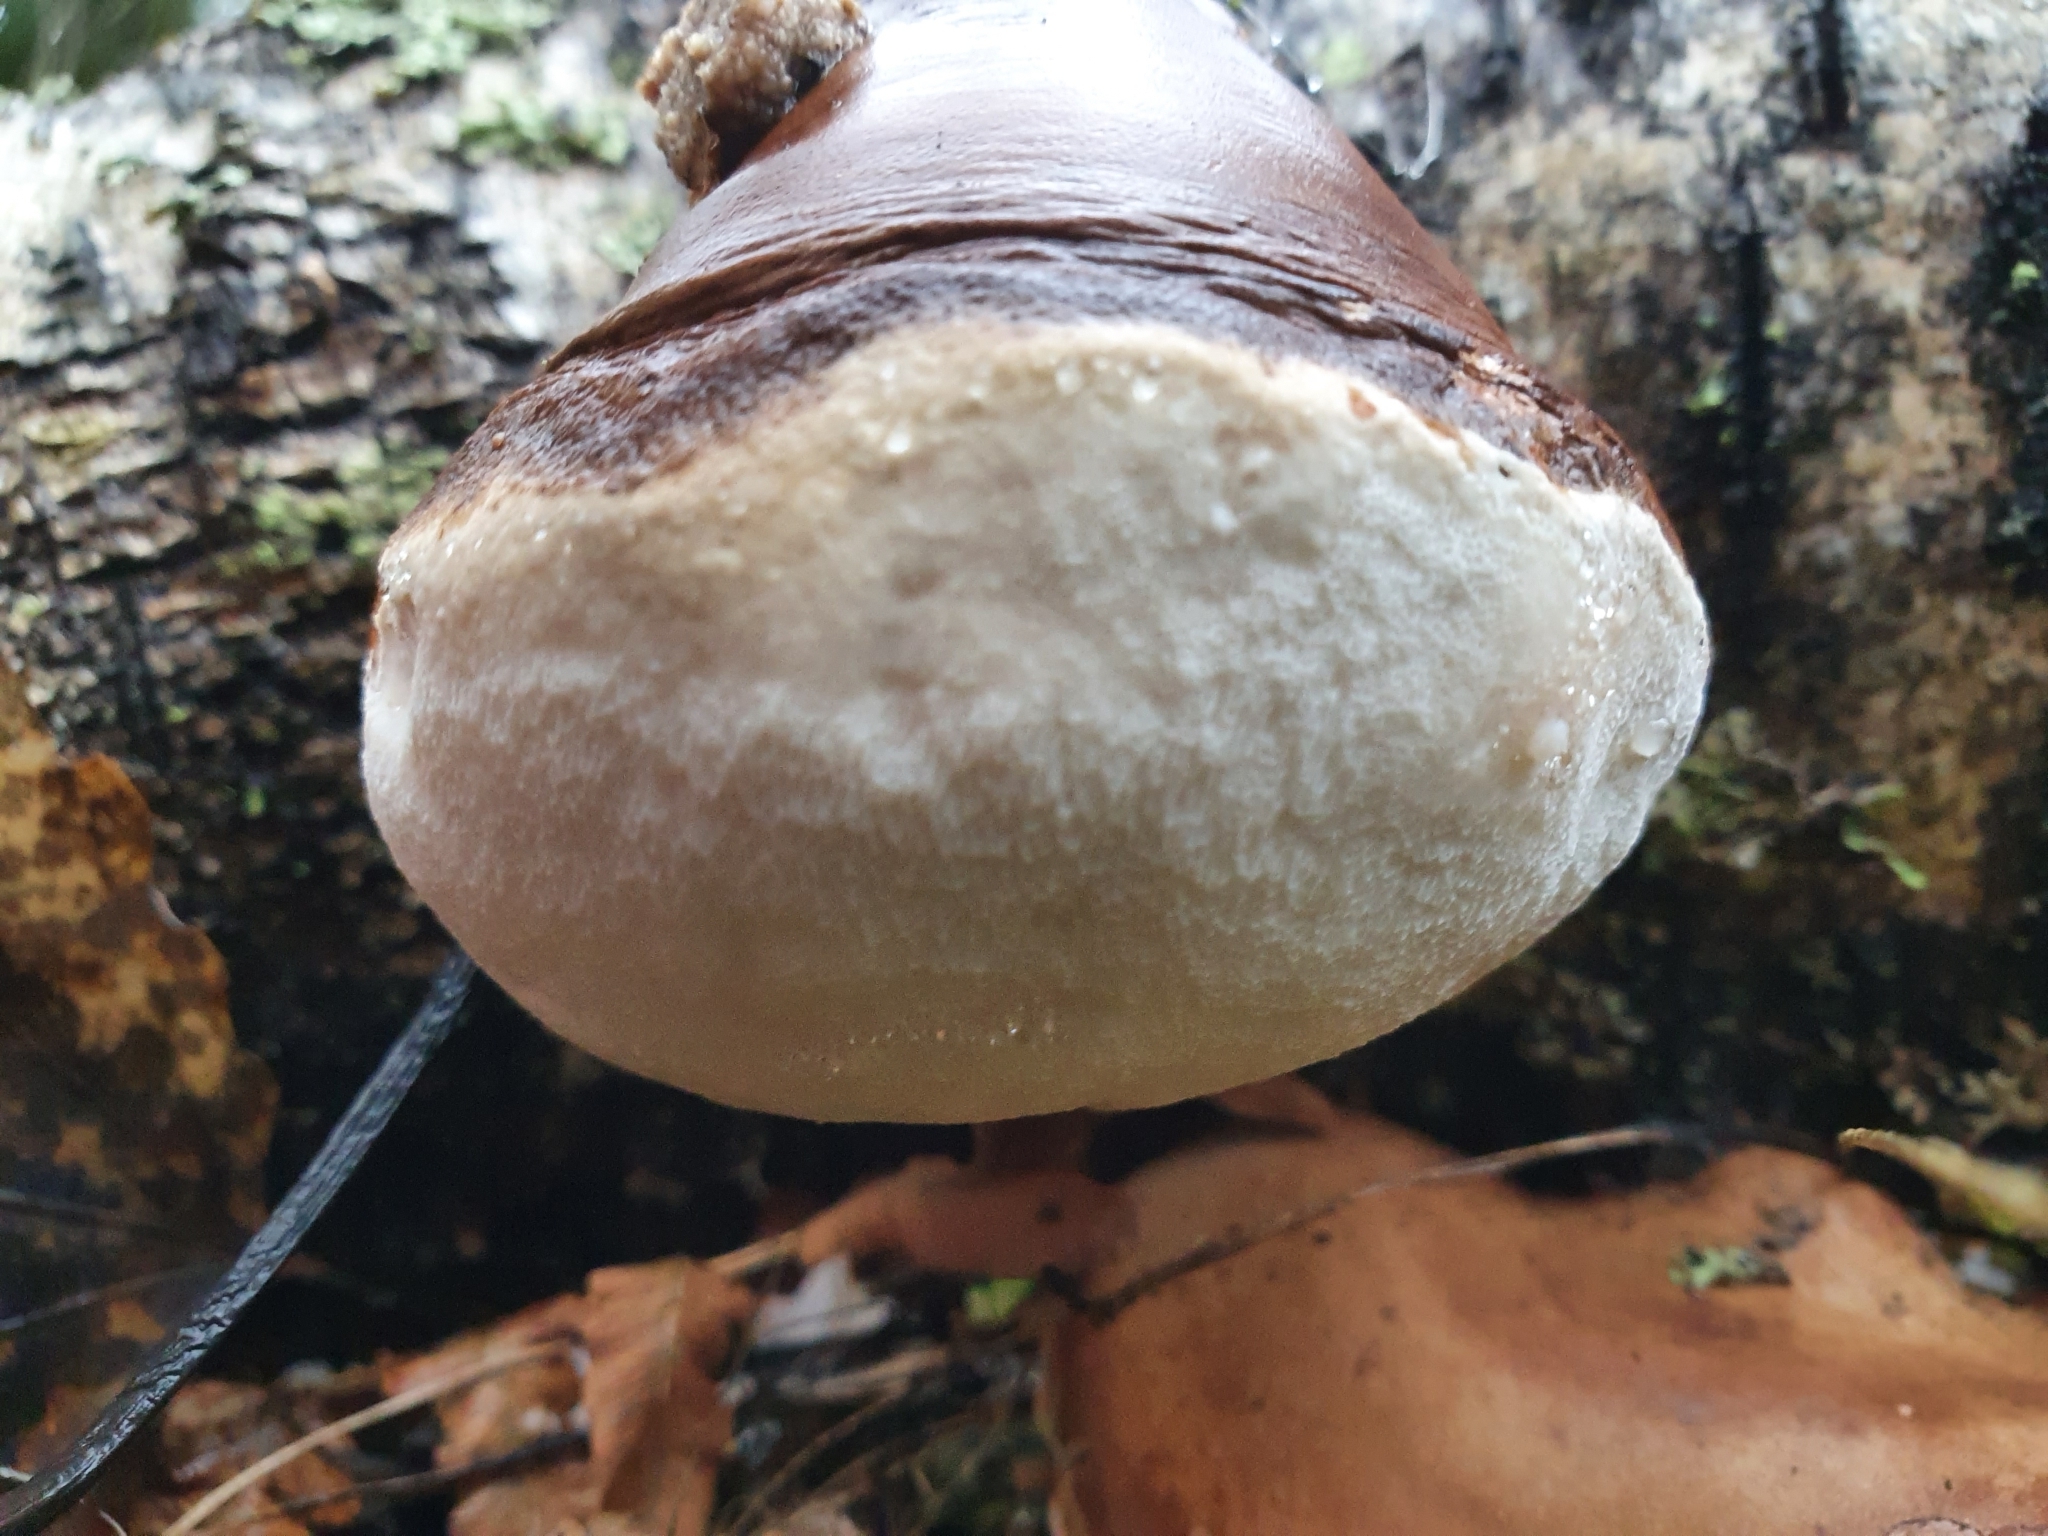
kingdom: Fungi
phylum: Basidiomycota
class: Agaricomycetes
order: Polyporales
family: Fomitopsidaceae
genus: Fomitopsis
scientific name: Fomitopsis betulina
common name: Birch polypore
